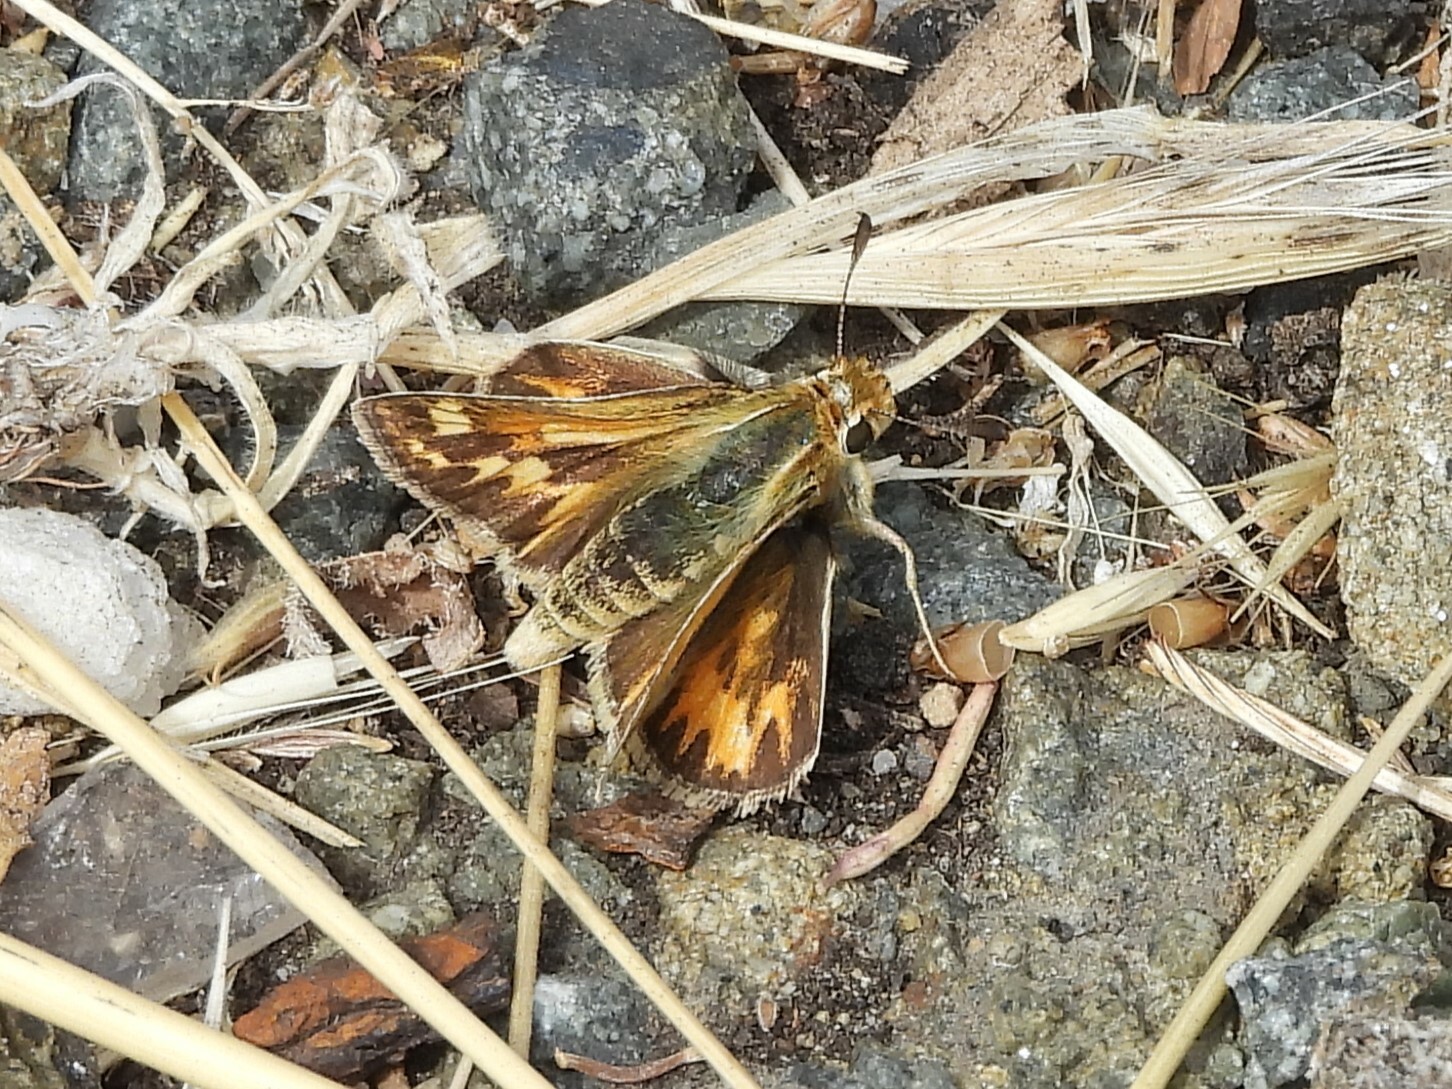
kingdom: Animalia
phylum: Arthropoda
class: Insecta
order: Lepidoptera
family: Hesperiidae
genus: Polites
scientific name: Polites sabuleti
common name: Sandhill skipper
